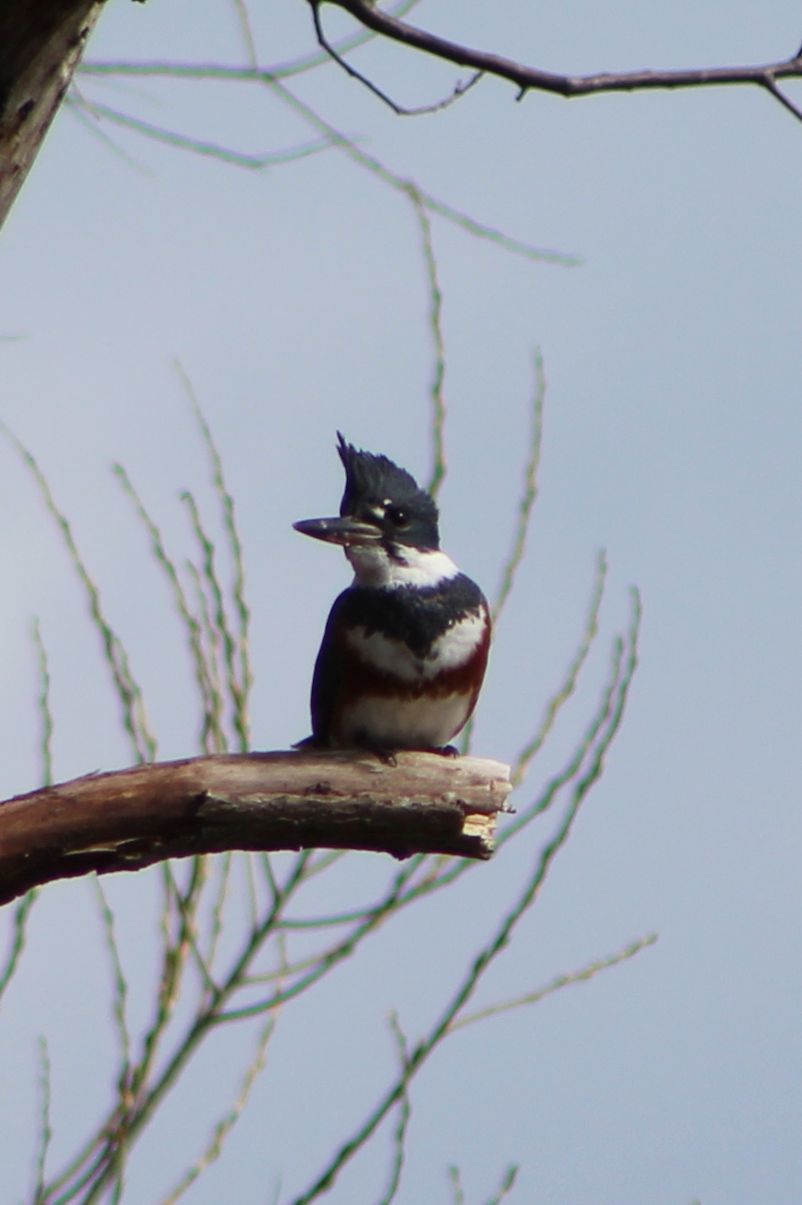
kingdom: Animalia
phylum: Chordata
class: Aves
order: Coraciiformes
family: Alcedinidae
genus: Megaceryle
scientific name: Megaceryle alcyon
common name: Belted kingfisher
